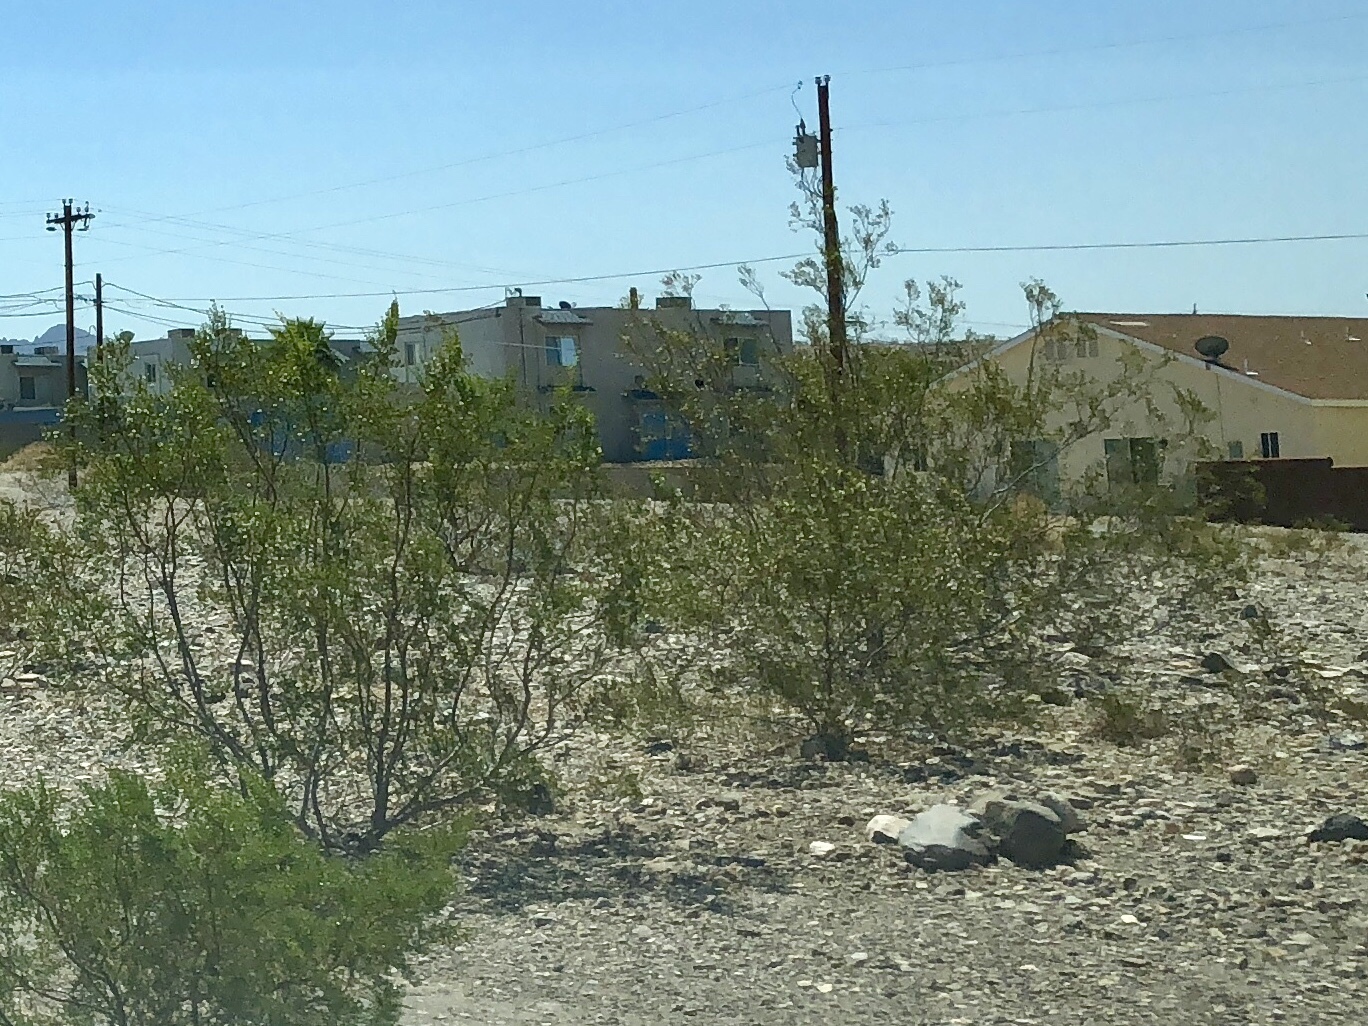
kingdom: Plantae
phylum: Tracheophyta
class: Magnoliopsida
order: Zygophyllales
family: Zygophyllaceae
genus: Larrea
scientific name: Larrea tridentata
